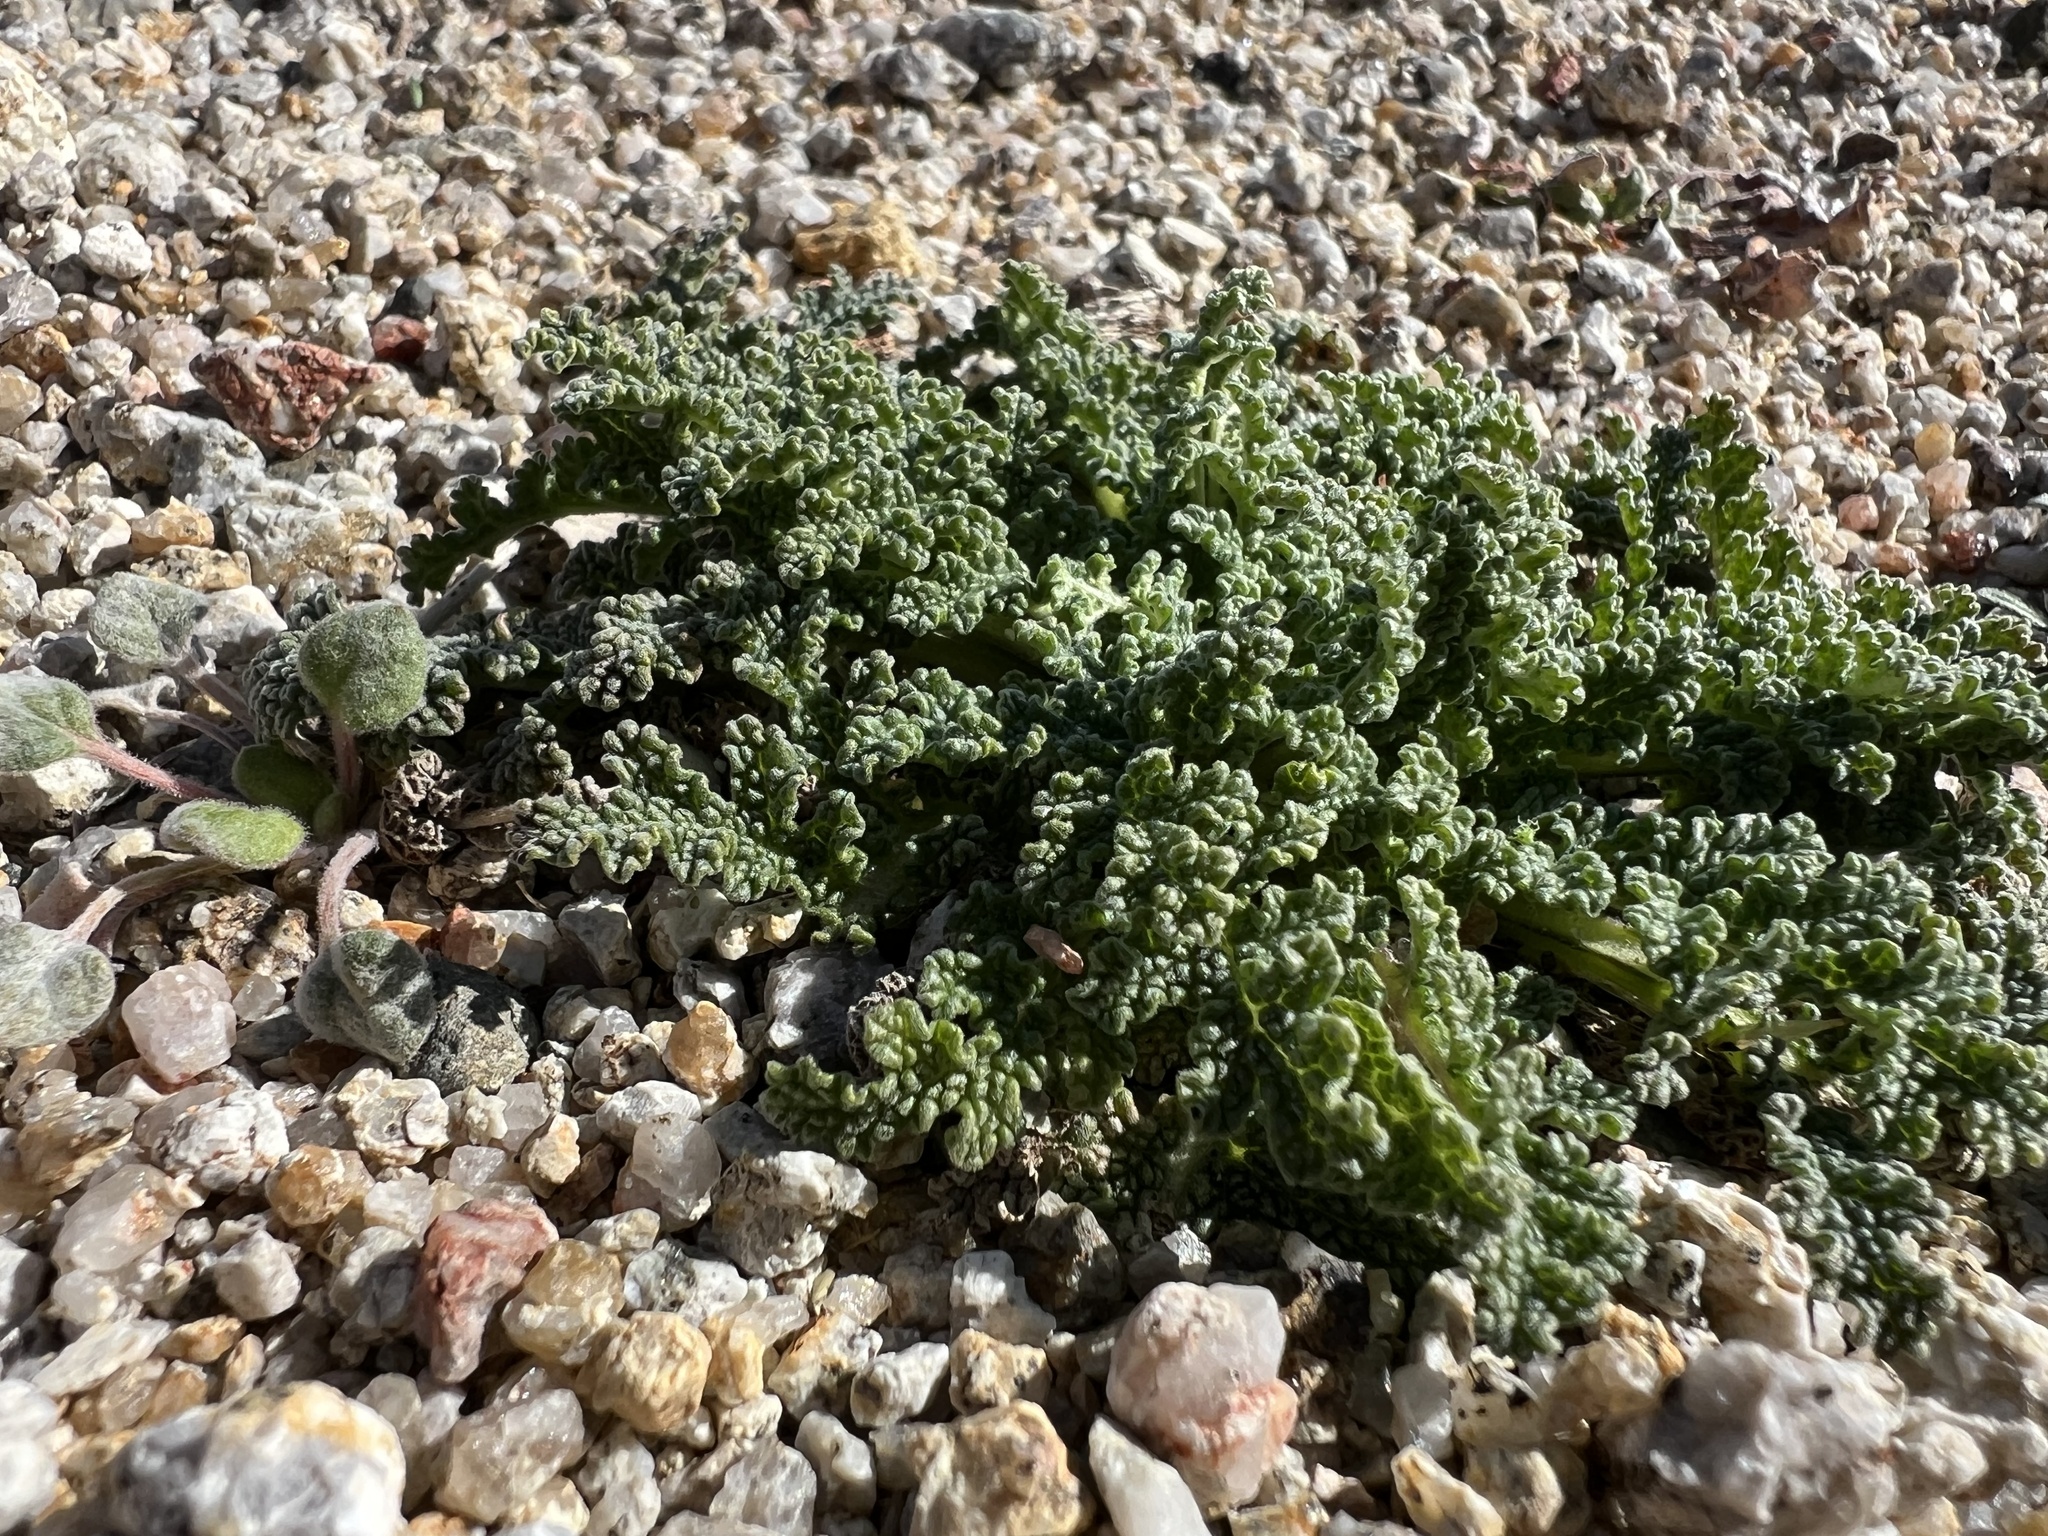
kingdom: Plantae
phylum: Tracheophyta
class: Magnoliopsida
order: Lamiales
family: Lamiaceae
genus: Salvia
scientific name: Salvia columbariae
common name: Chia
